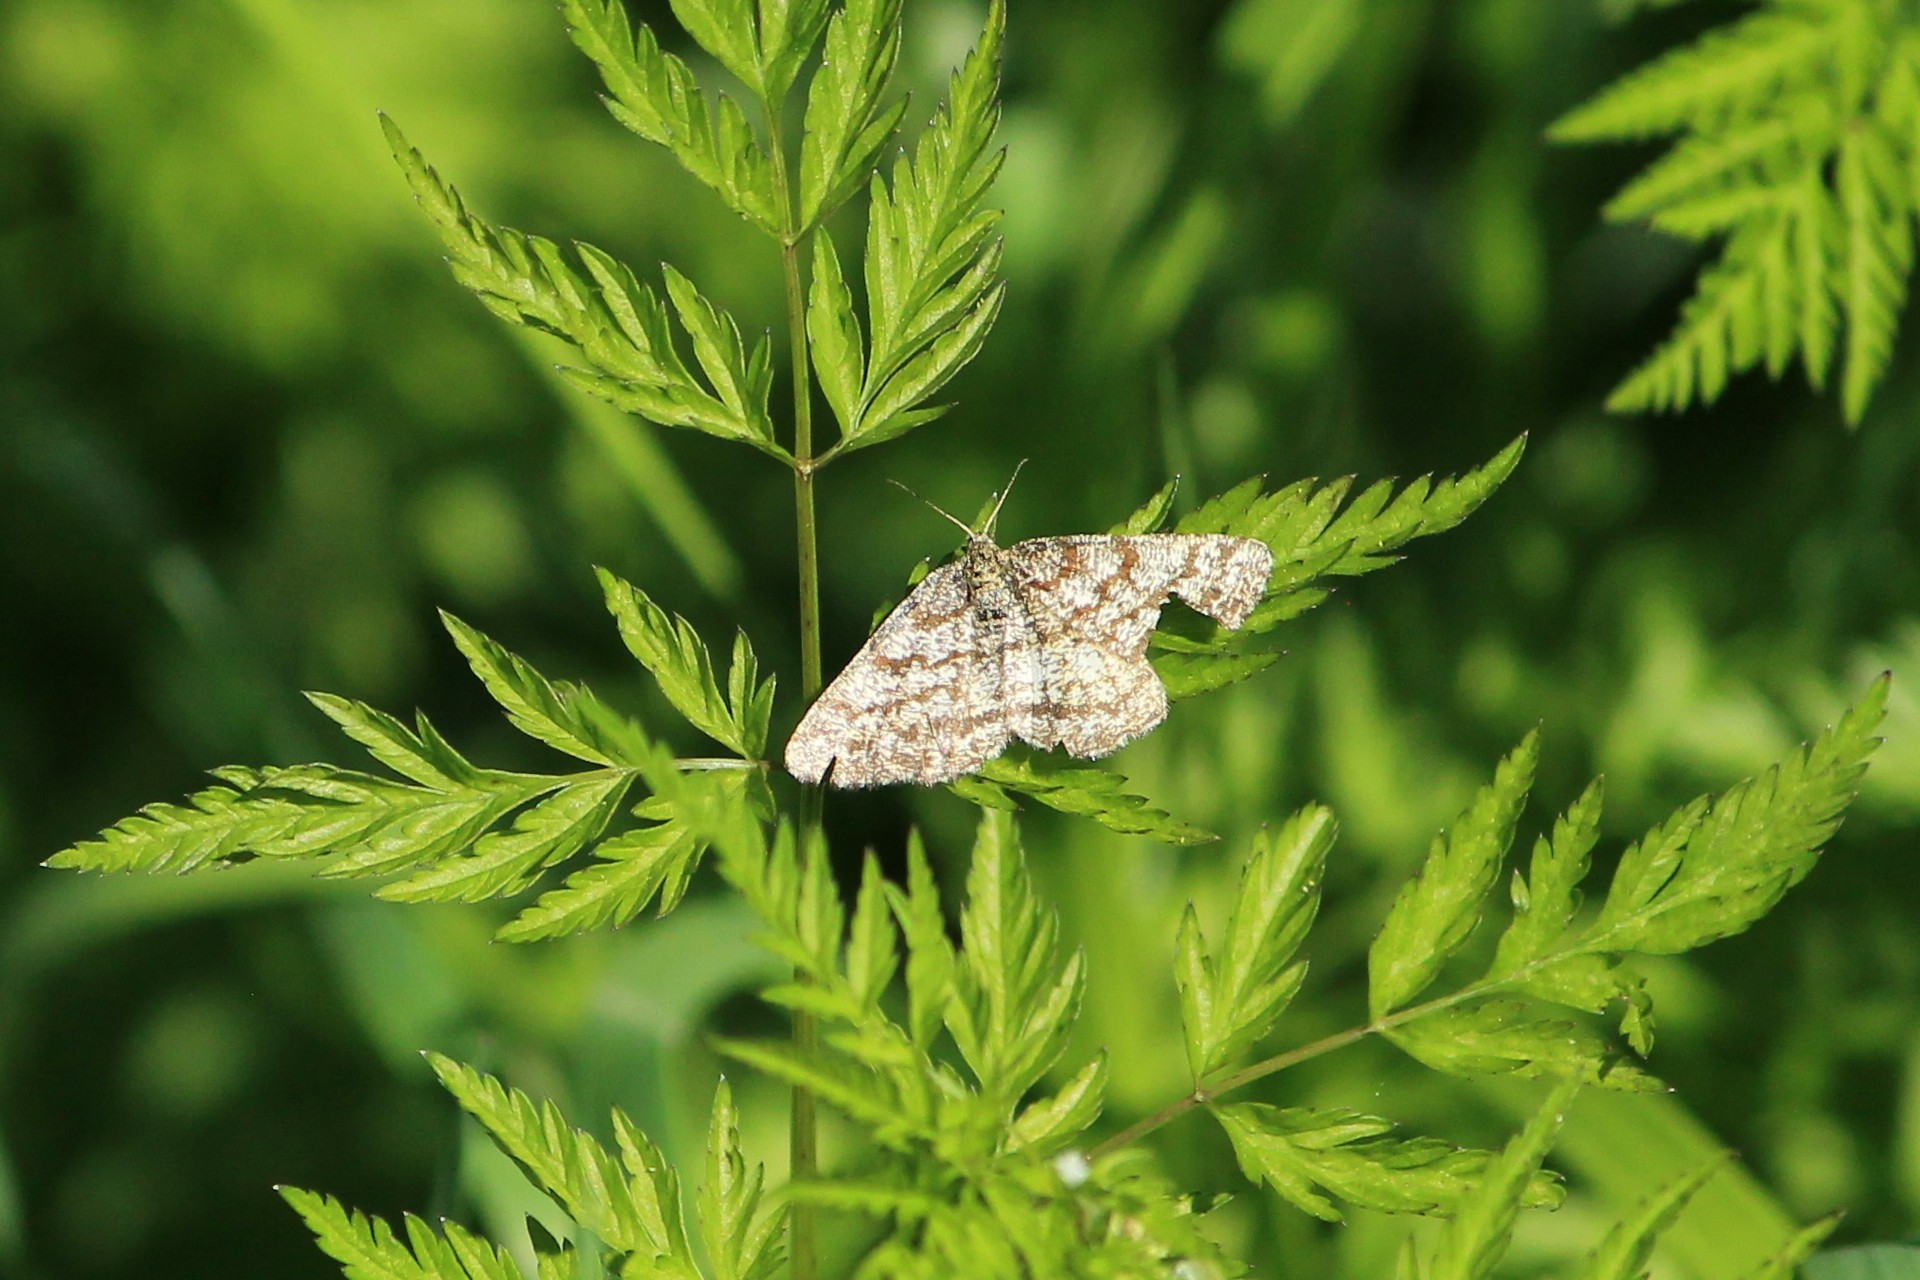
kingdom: Animalia
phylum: Arthropoda
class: Insecta
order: Lepidoptera
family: Geometridae
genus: Ematurga
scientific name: Ematurga atomaria
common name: Common heath
